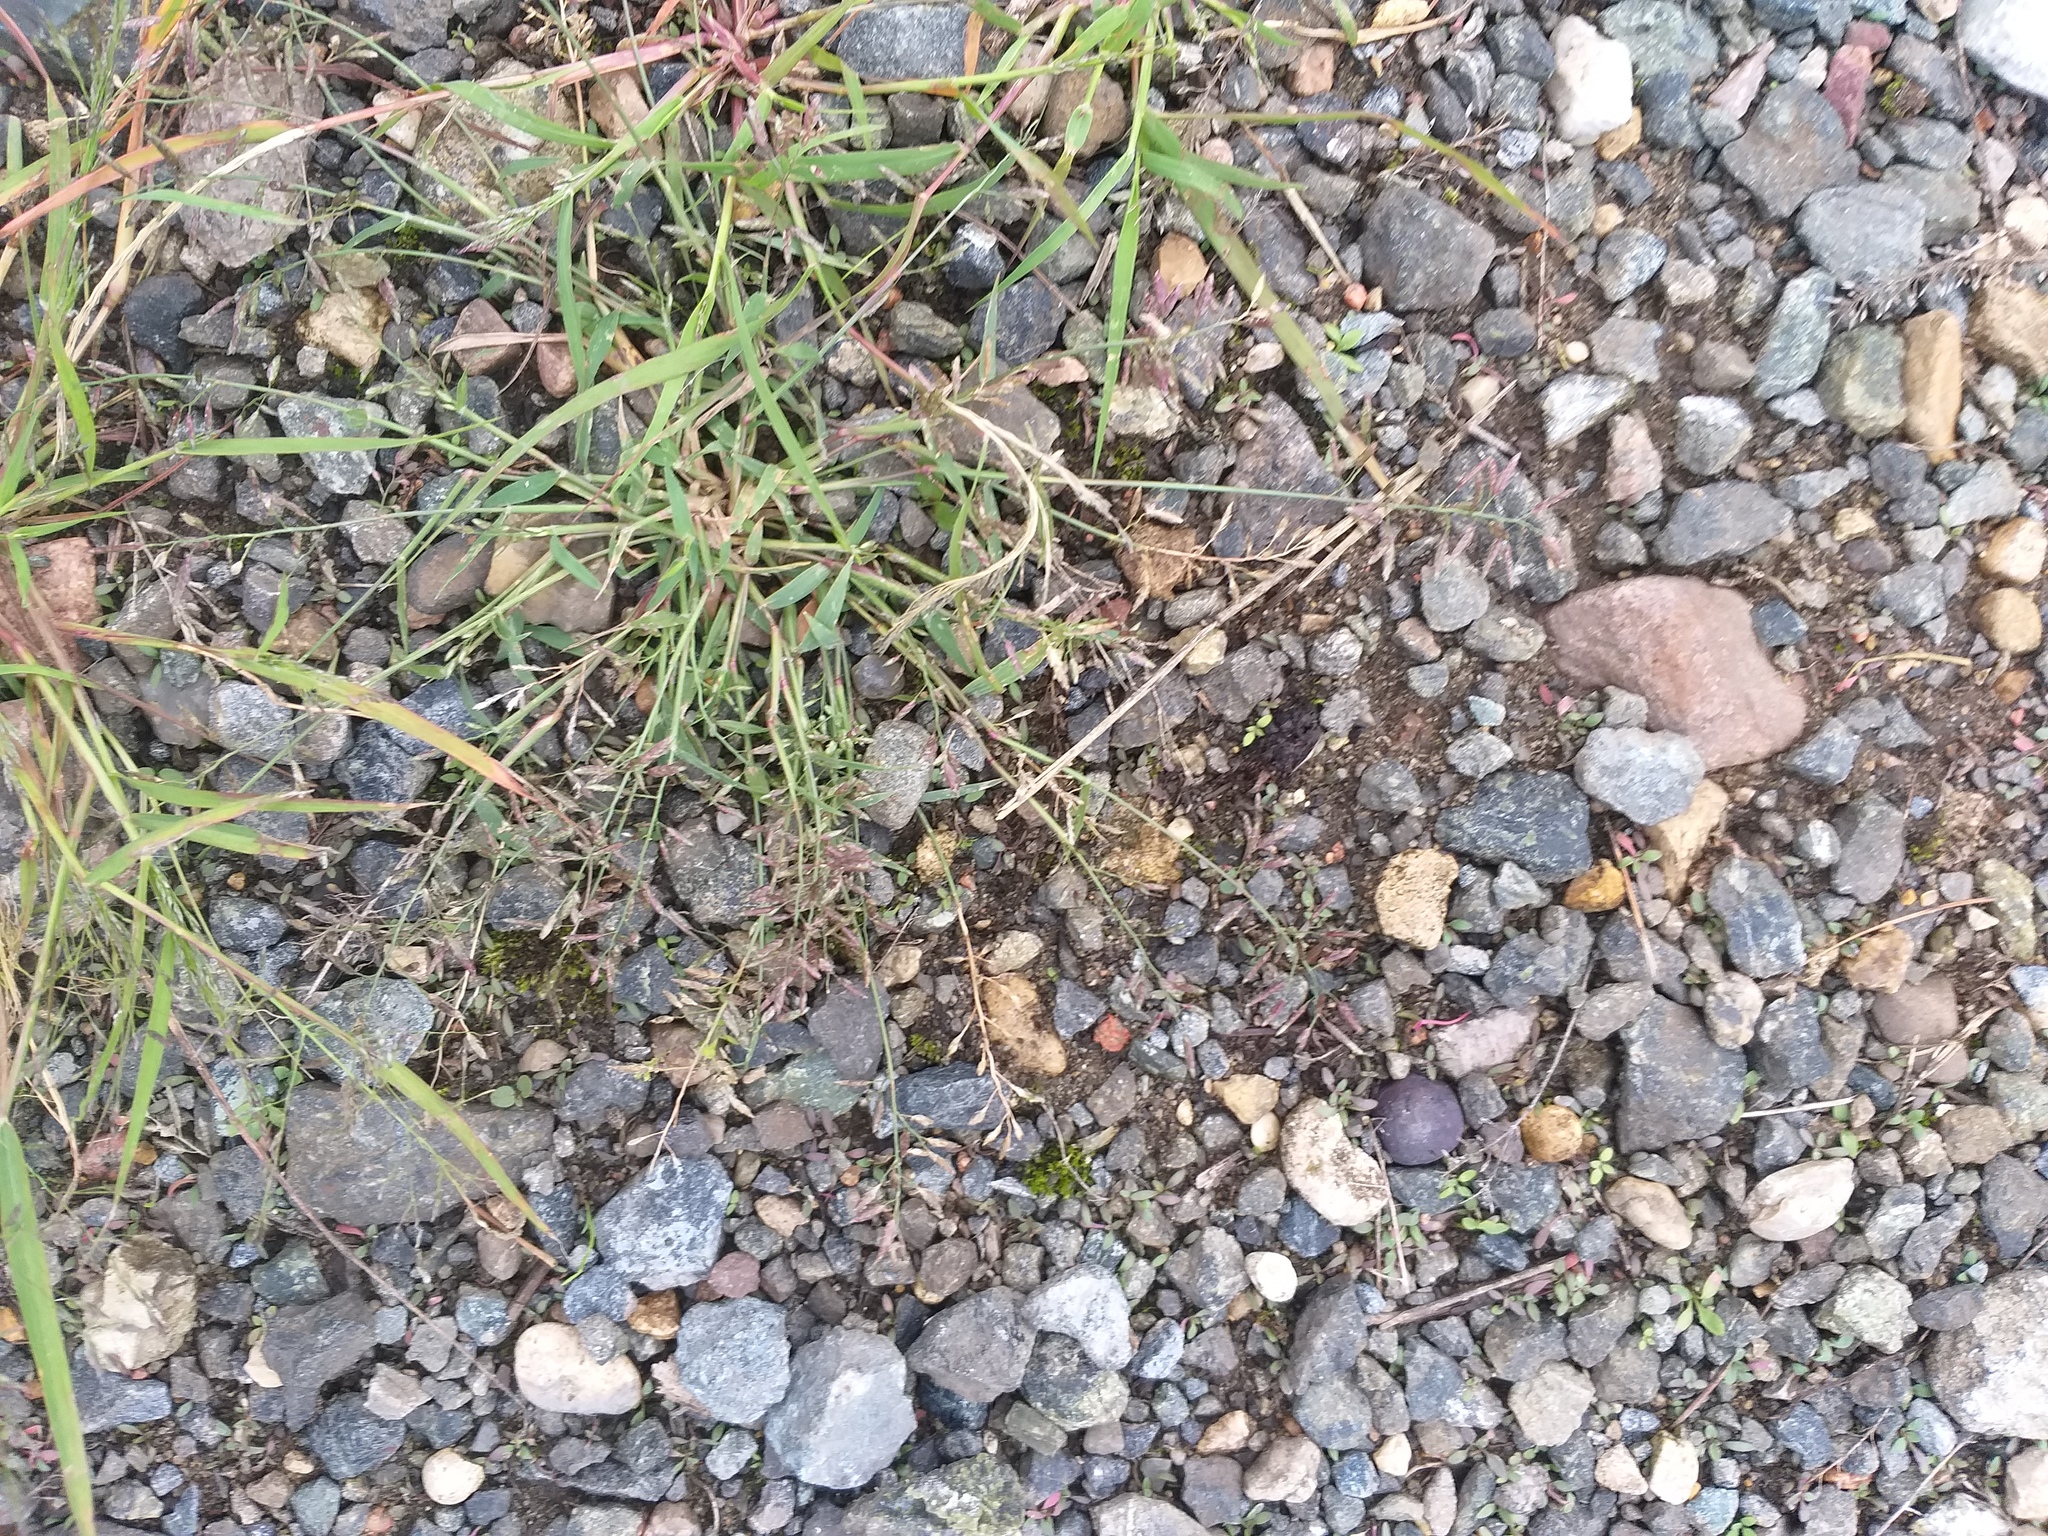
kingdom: Plantae
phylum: Tracheophyta
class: Liliopsida
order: Poales
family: Poaceae
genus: Eragrostis
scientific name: Eragrostis minor
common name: Small love-grass
